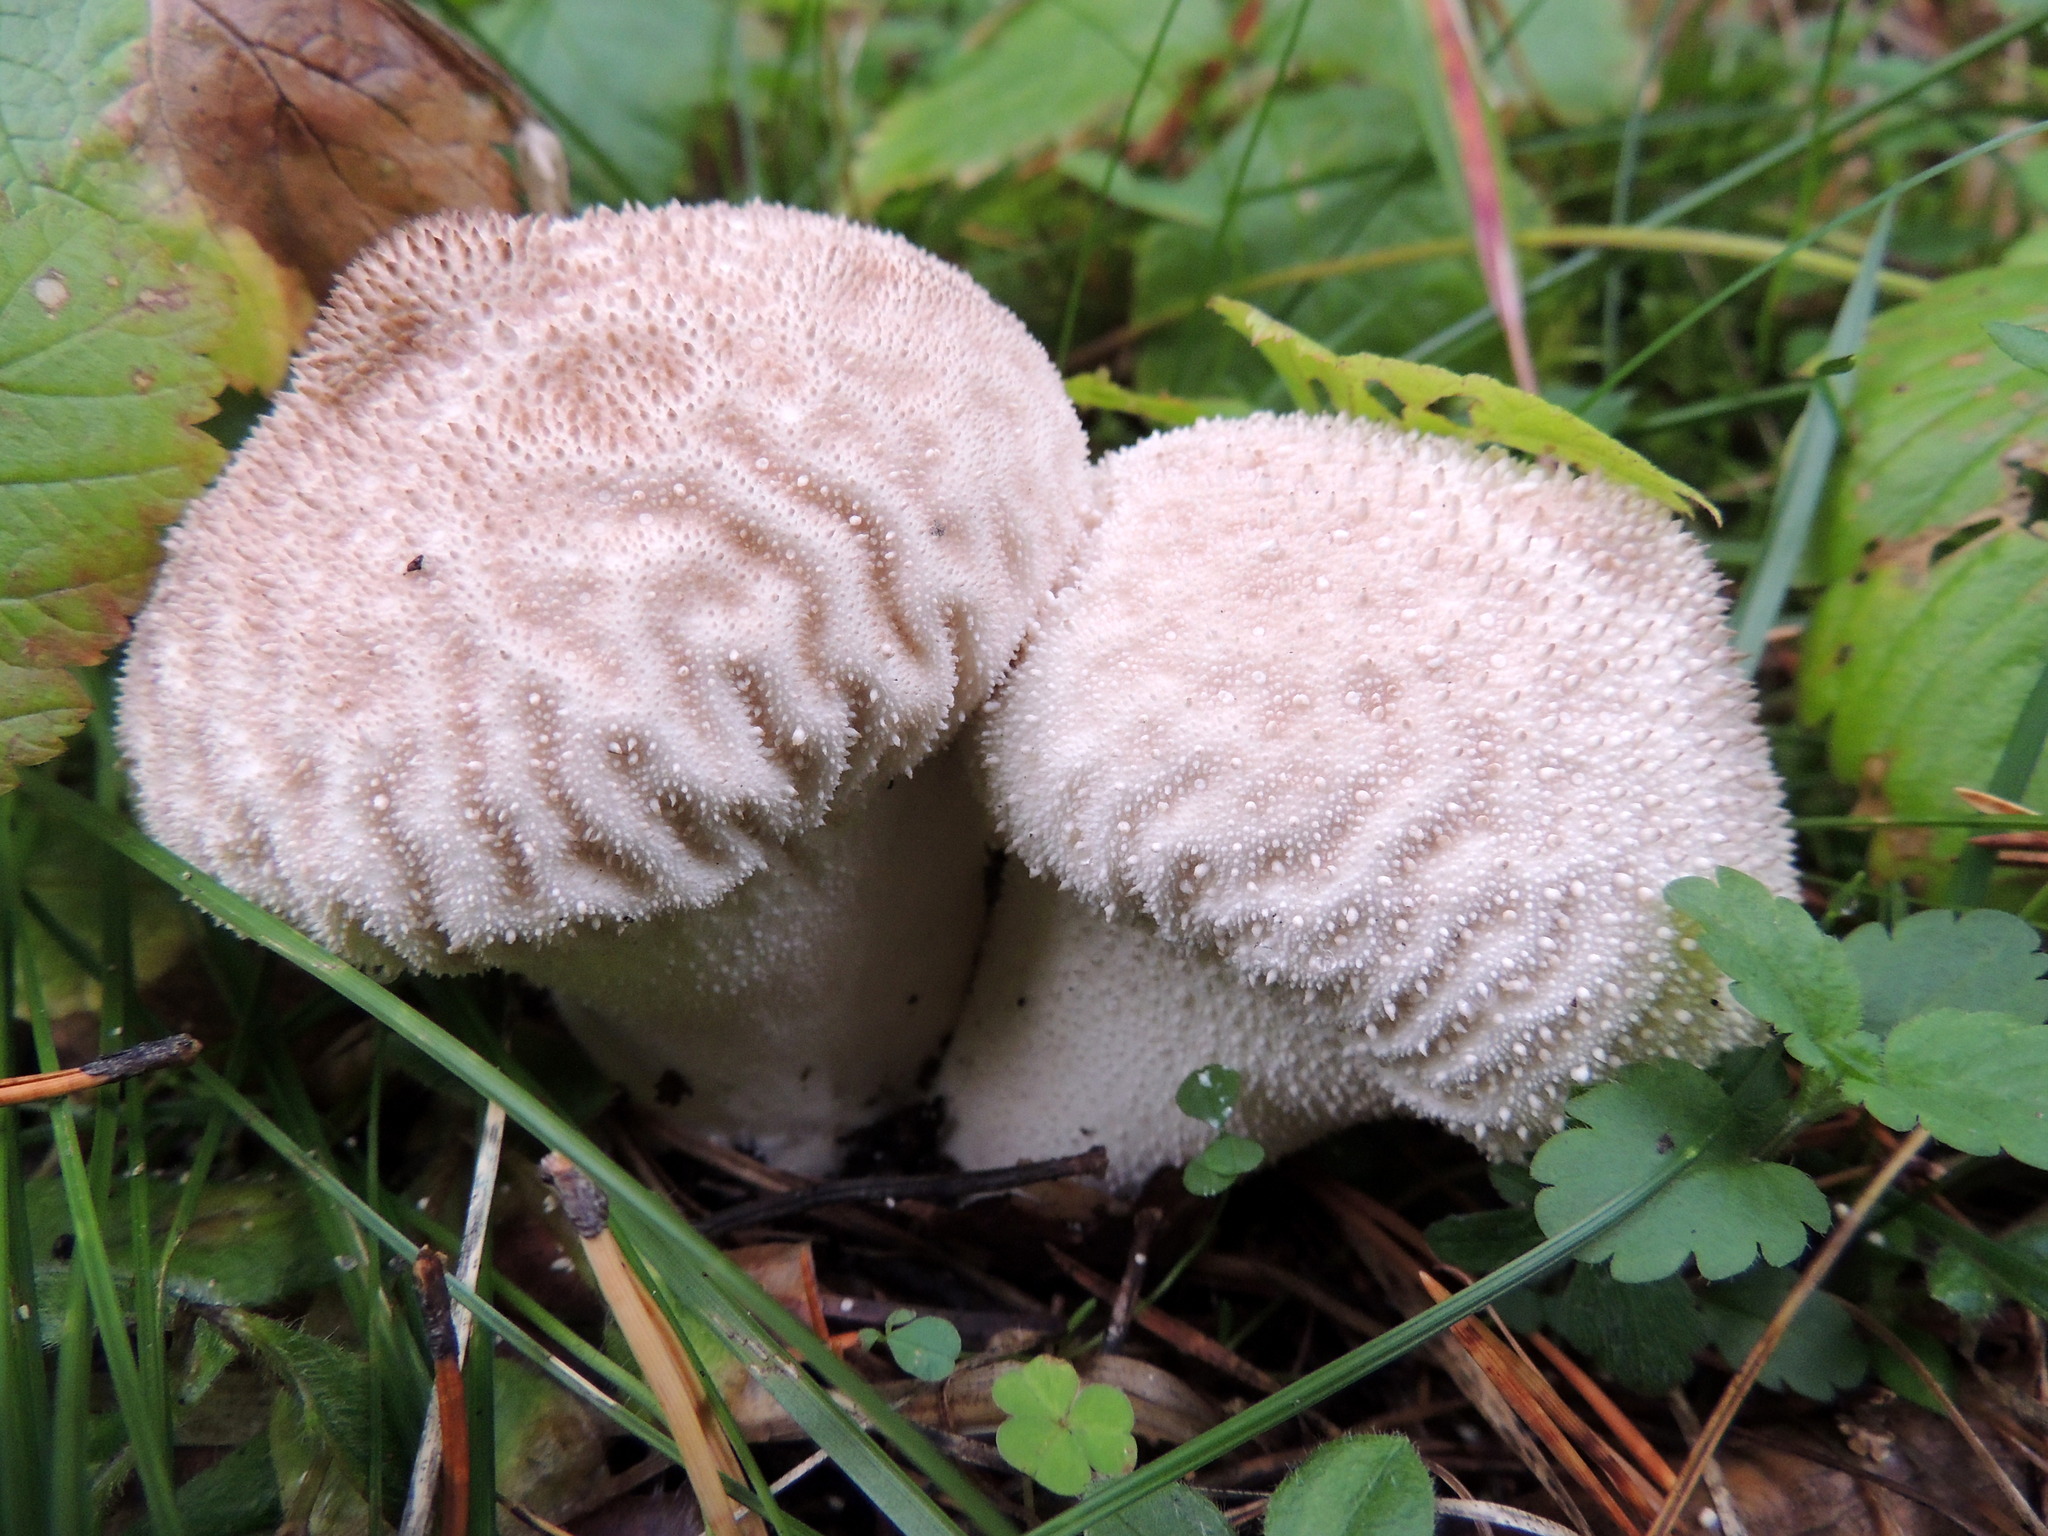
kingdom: Fungi
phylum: Basidiomycota
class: Agaricomycetes
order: Agaricales
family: Lycoperdaceae
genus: Lycoperdon
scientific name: Lycoperdon perlatum
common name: Common puffball
